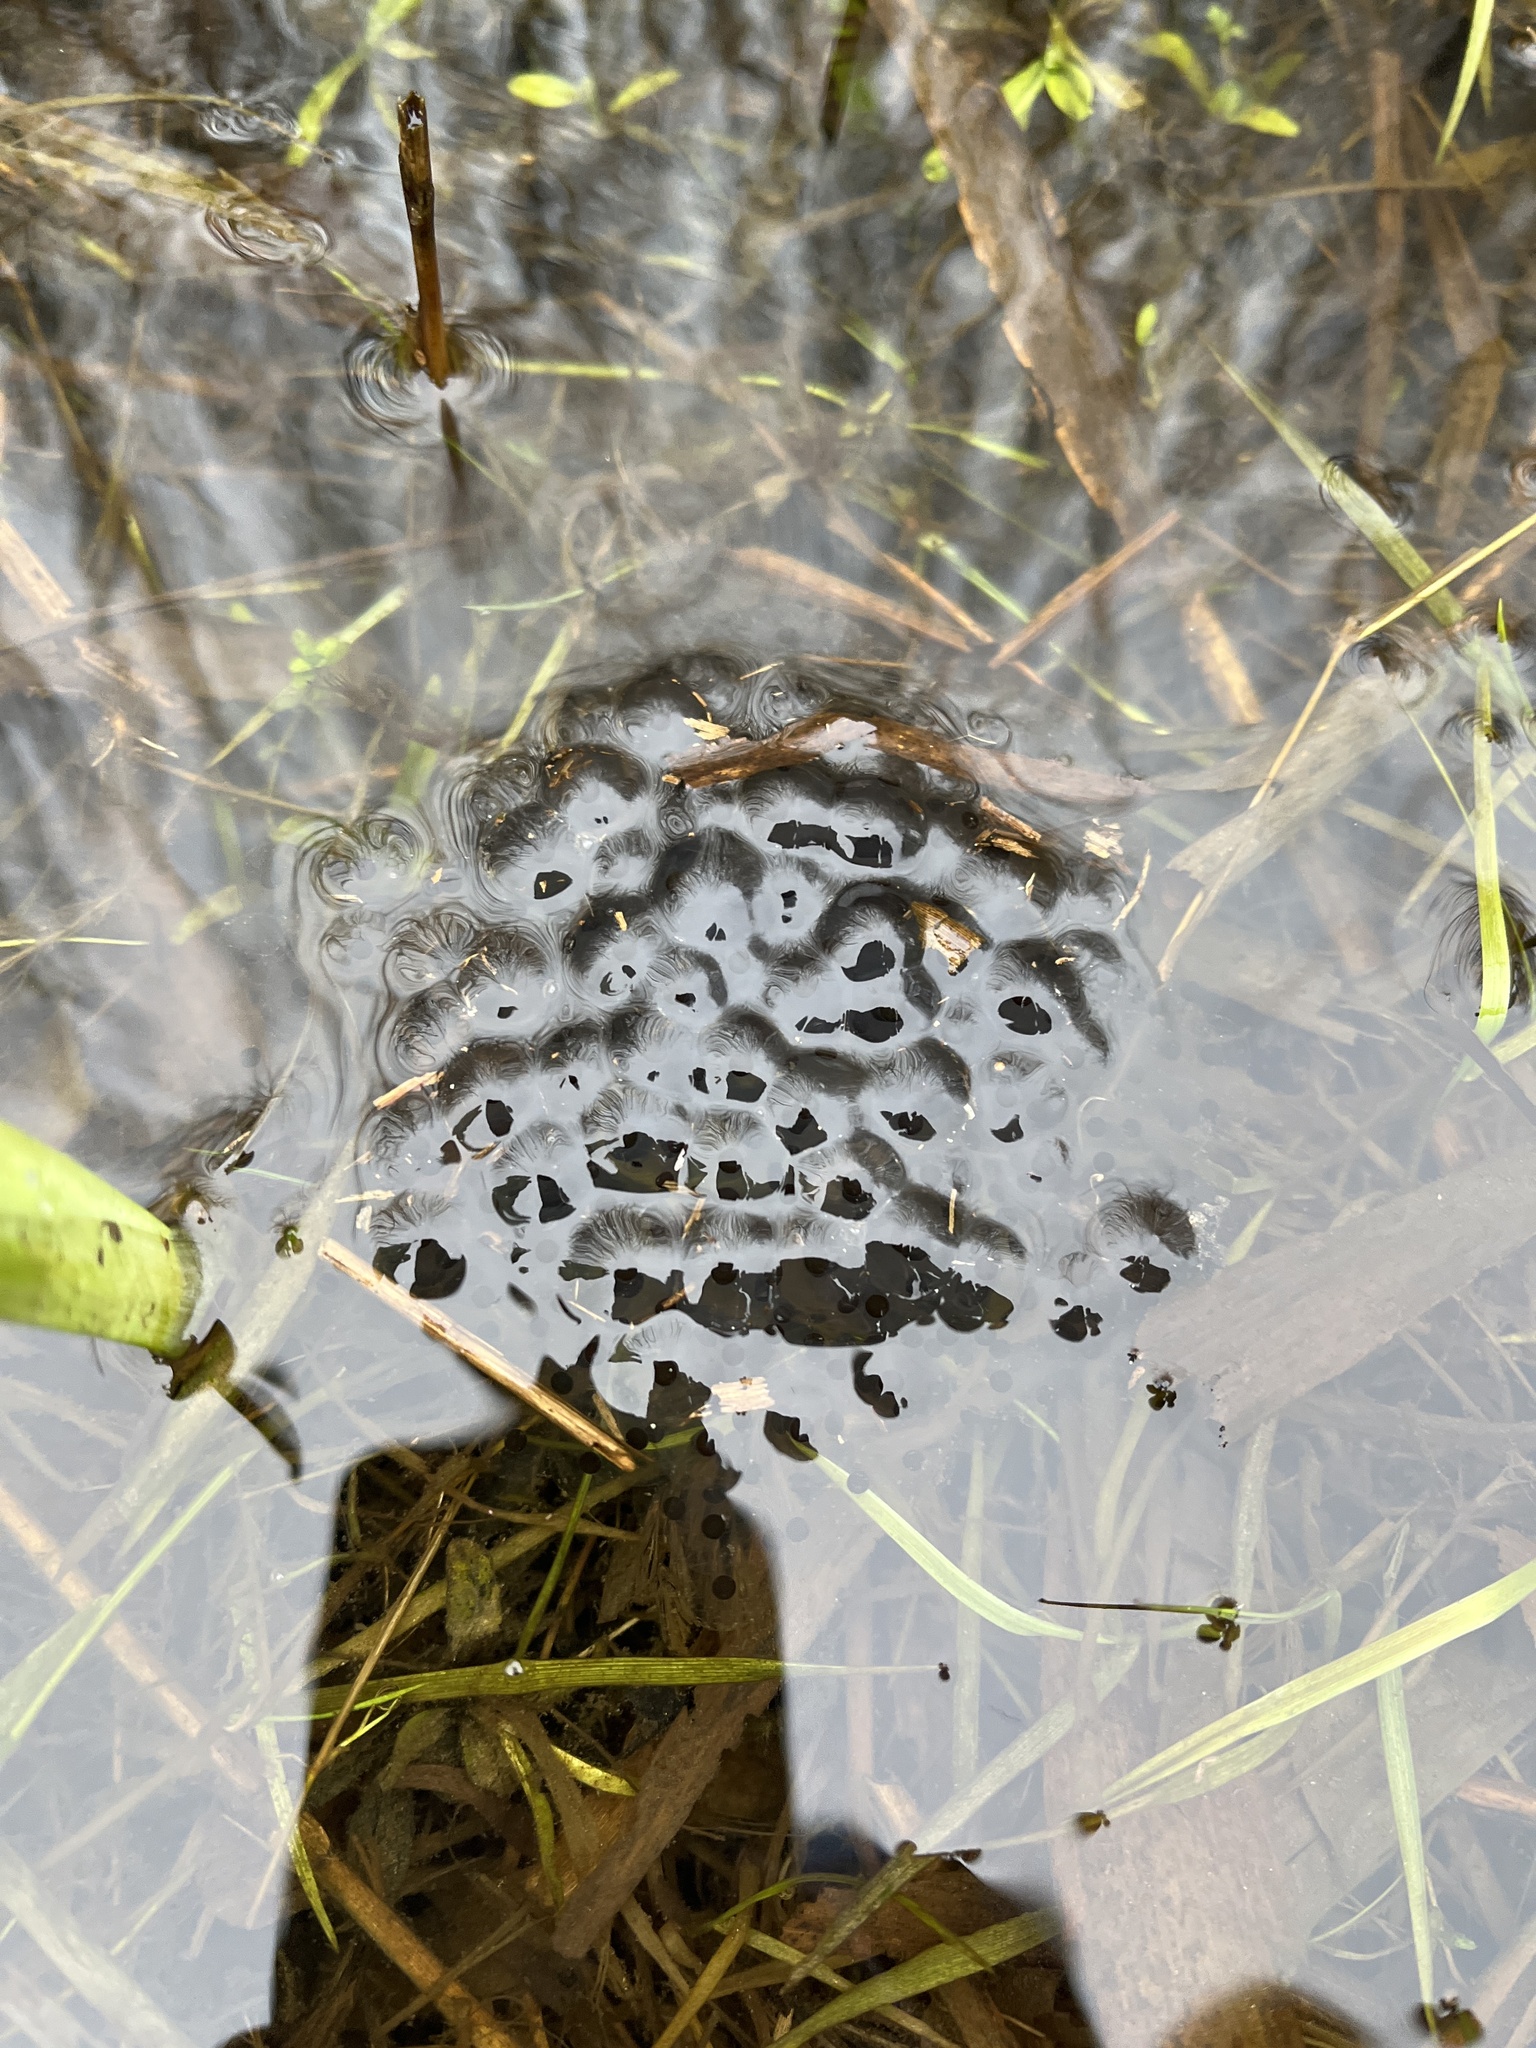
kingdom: Animalia
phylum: Chordata
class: Amphibia
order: Anura
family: Ranidae
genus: Rana
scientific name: Rana temporaria
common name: Common frog
